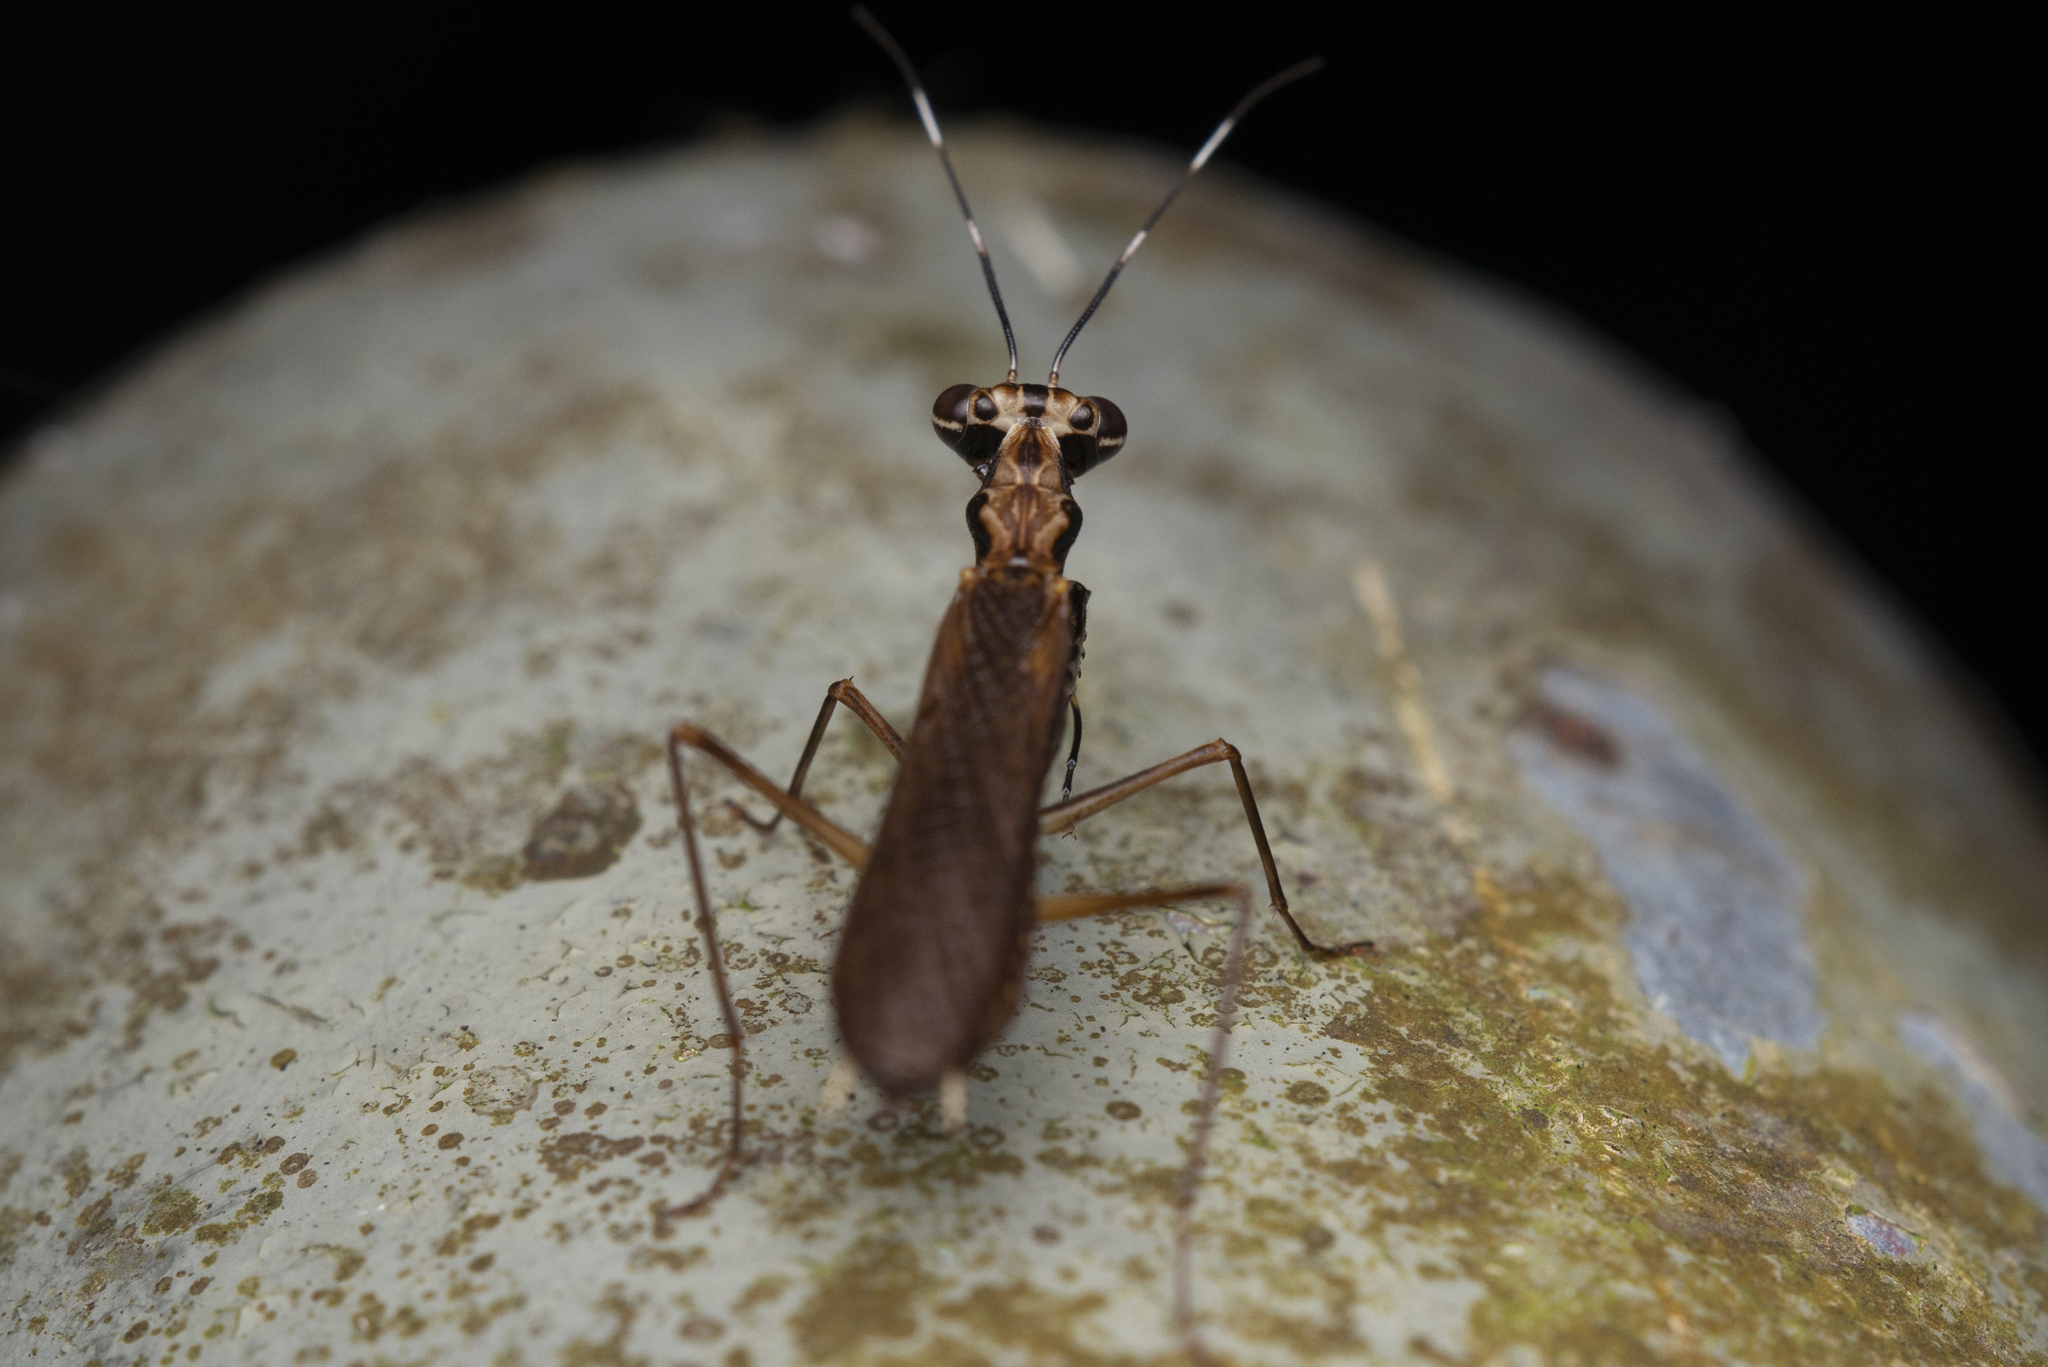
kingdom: Animalia
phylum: Arthropoda
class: Insecta
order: Mantodea
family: Gonypetidae
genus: Spilomantis
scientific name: Spilomantis occipitalis
